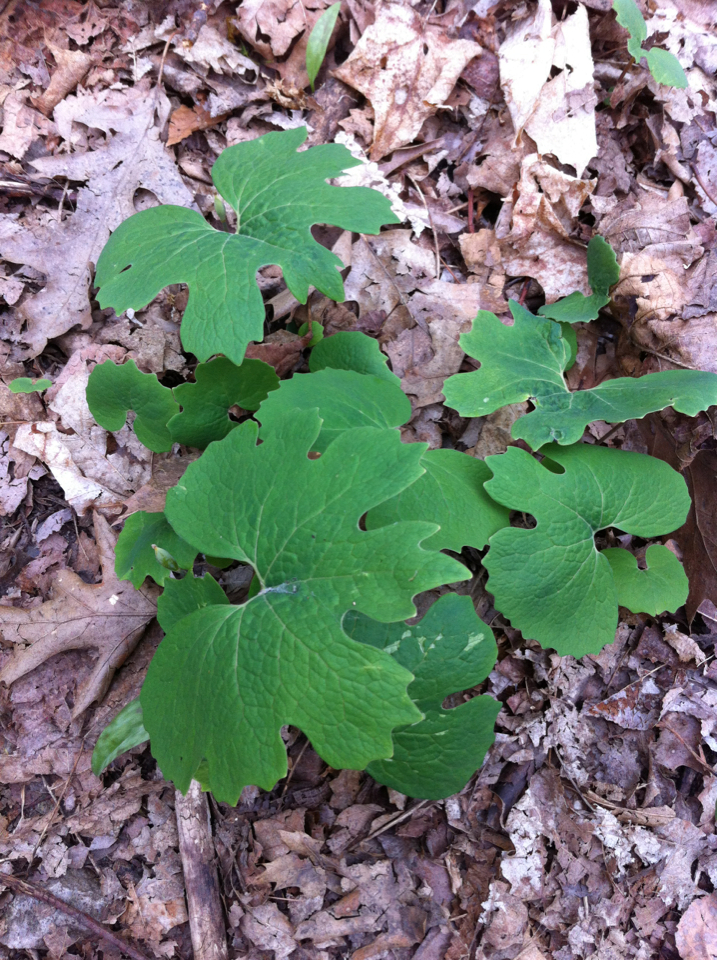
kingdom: Plantae
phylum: Tracheophyta
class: Magnoliopsida
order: Ranunculales
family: Papaveraceae
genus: Sanguinaria
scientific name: Sanguinaria canadensis
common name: Bloodroot
